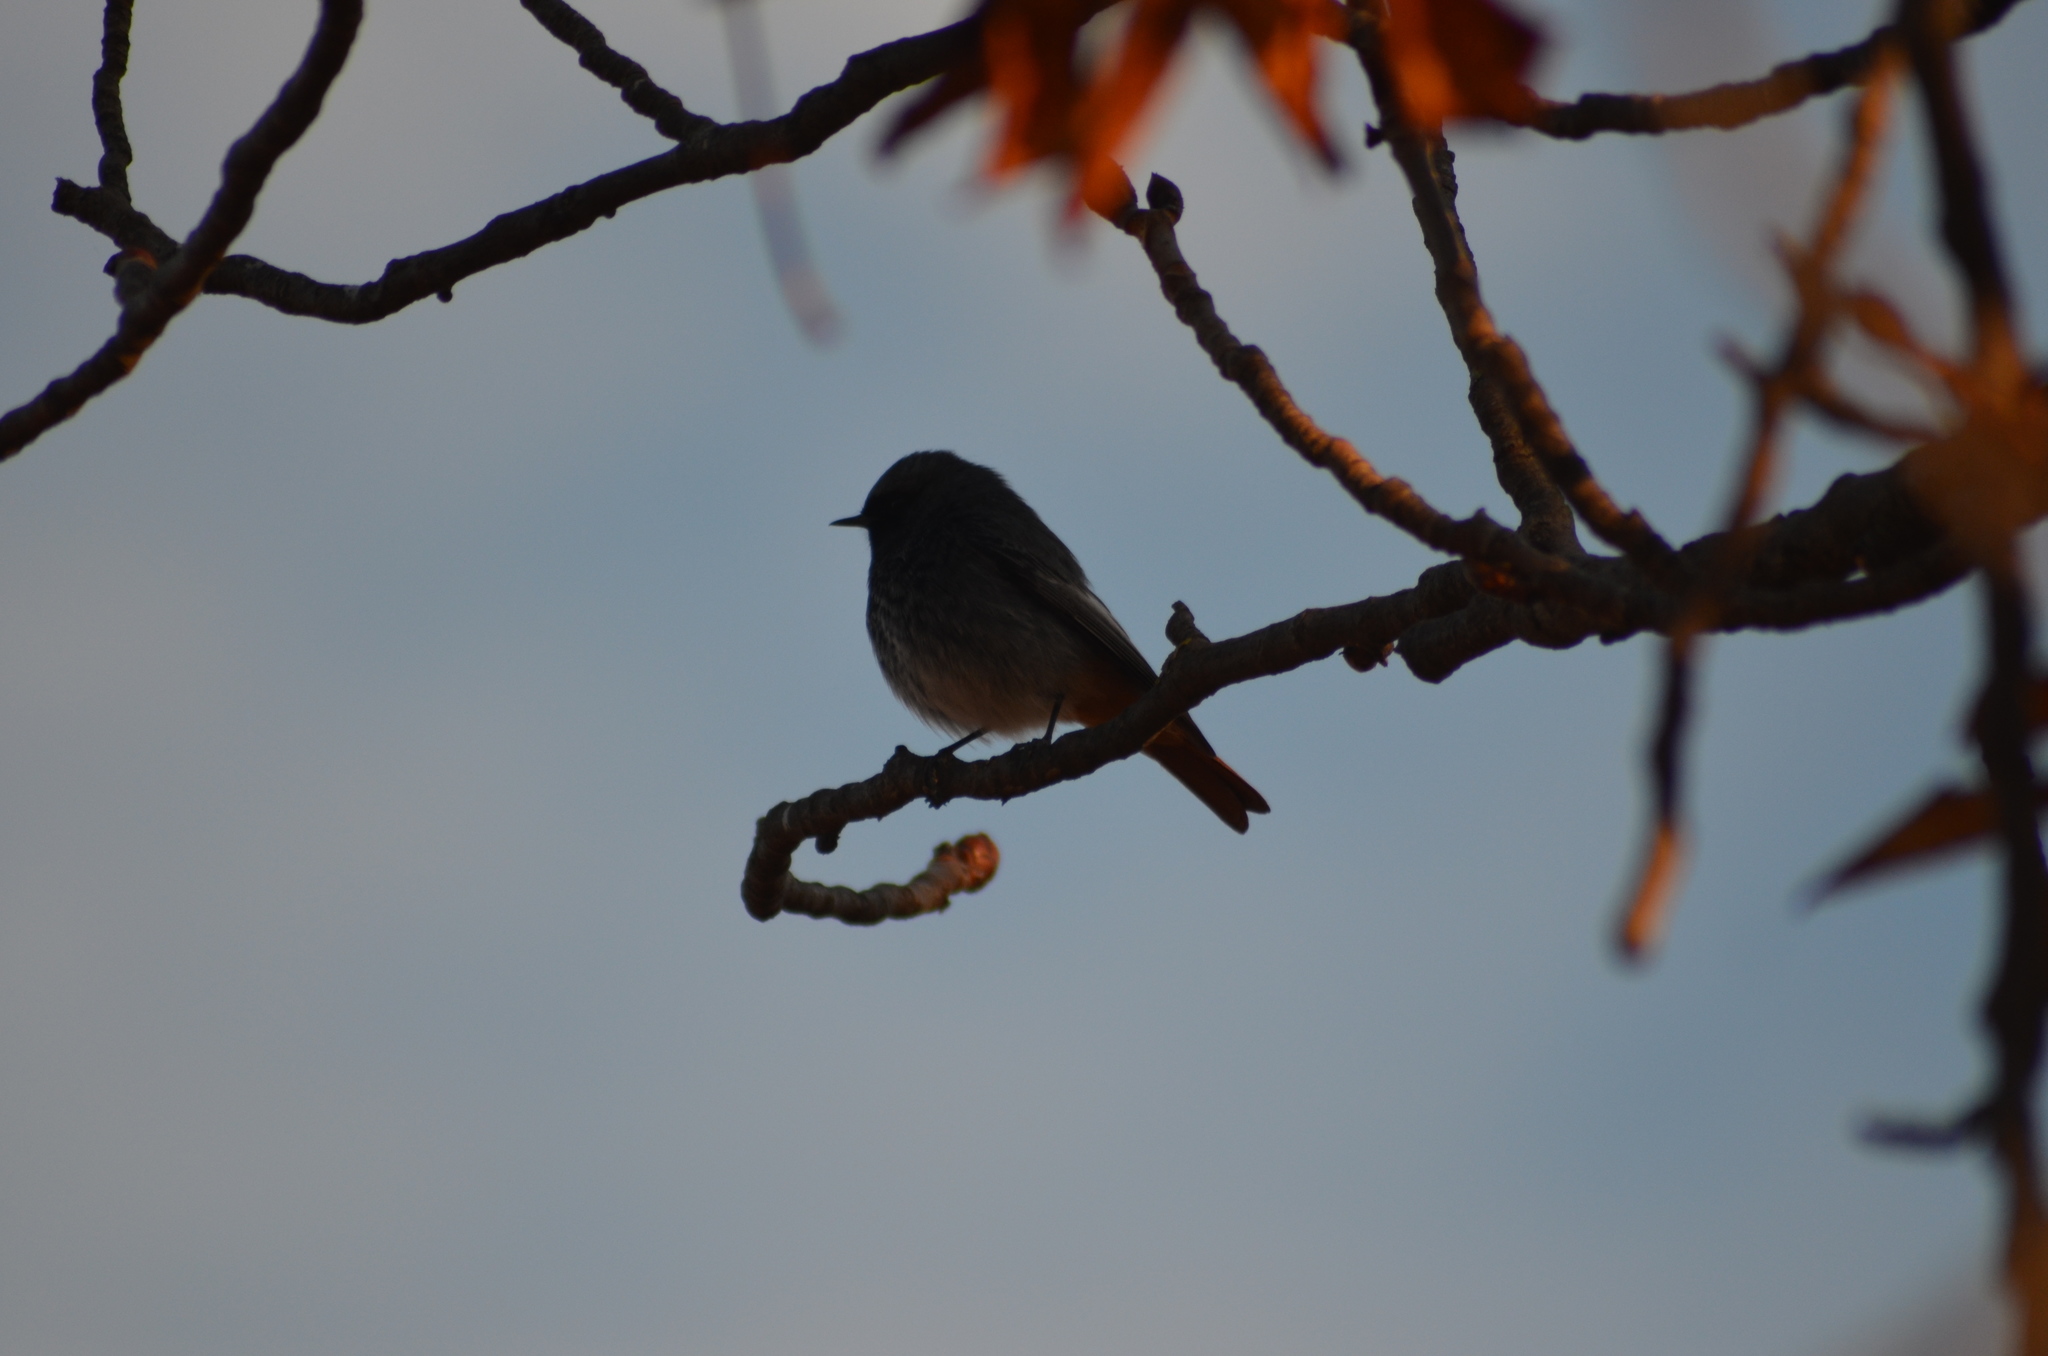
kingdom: Animalia
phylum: Chordata
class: Aves
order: Passeriformes
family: Muscicapidae
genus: Phoenicurus
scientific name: Phoenicurus ochruros
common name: Black redstart
